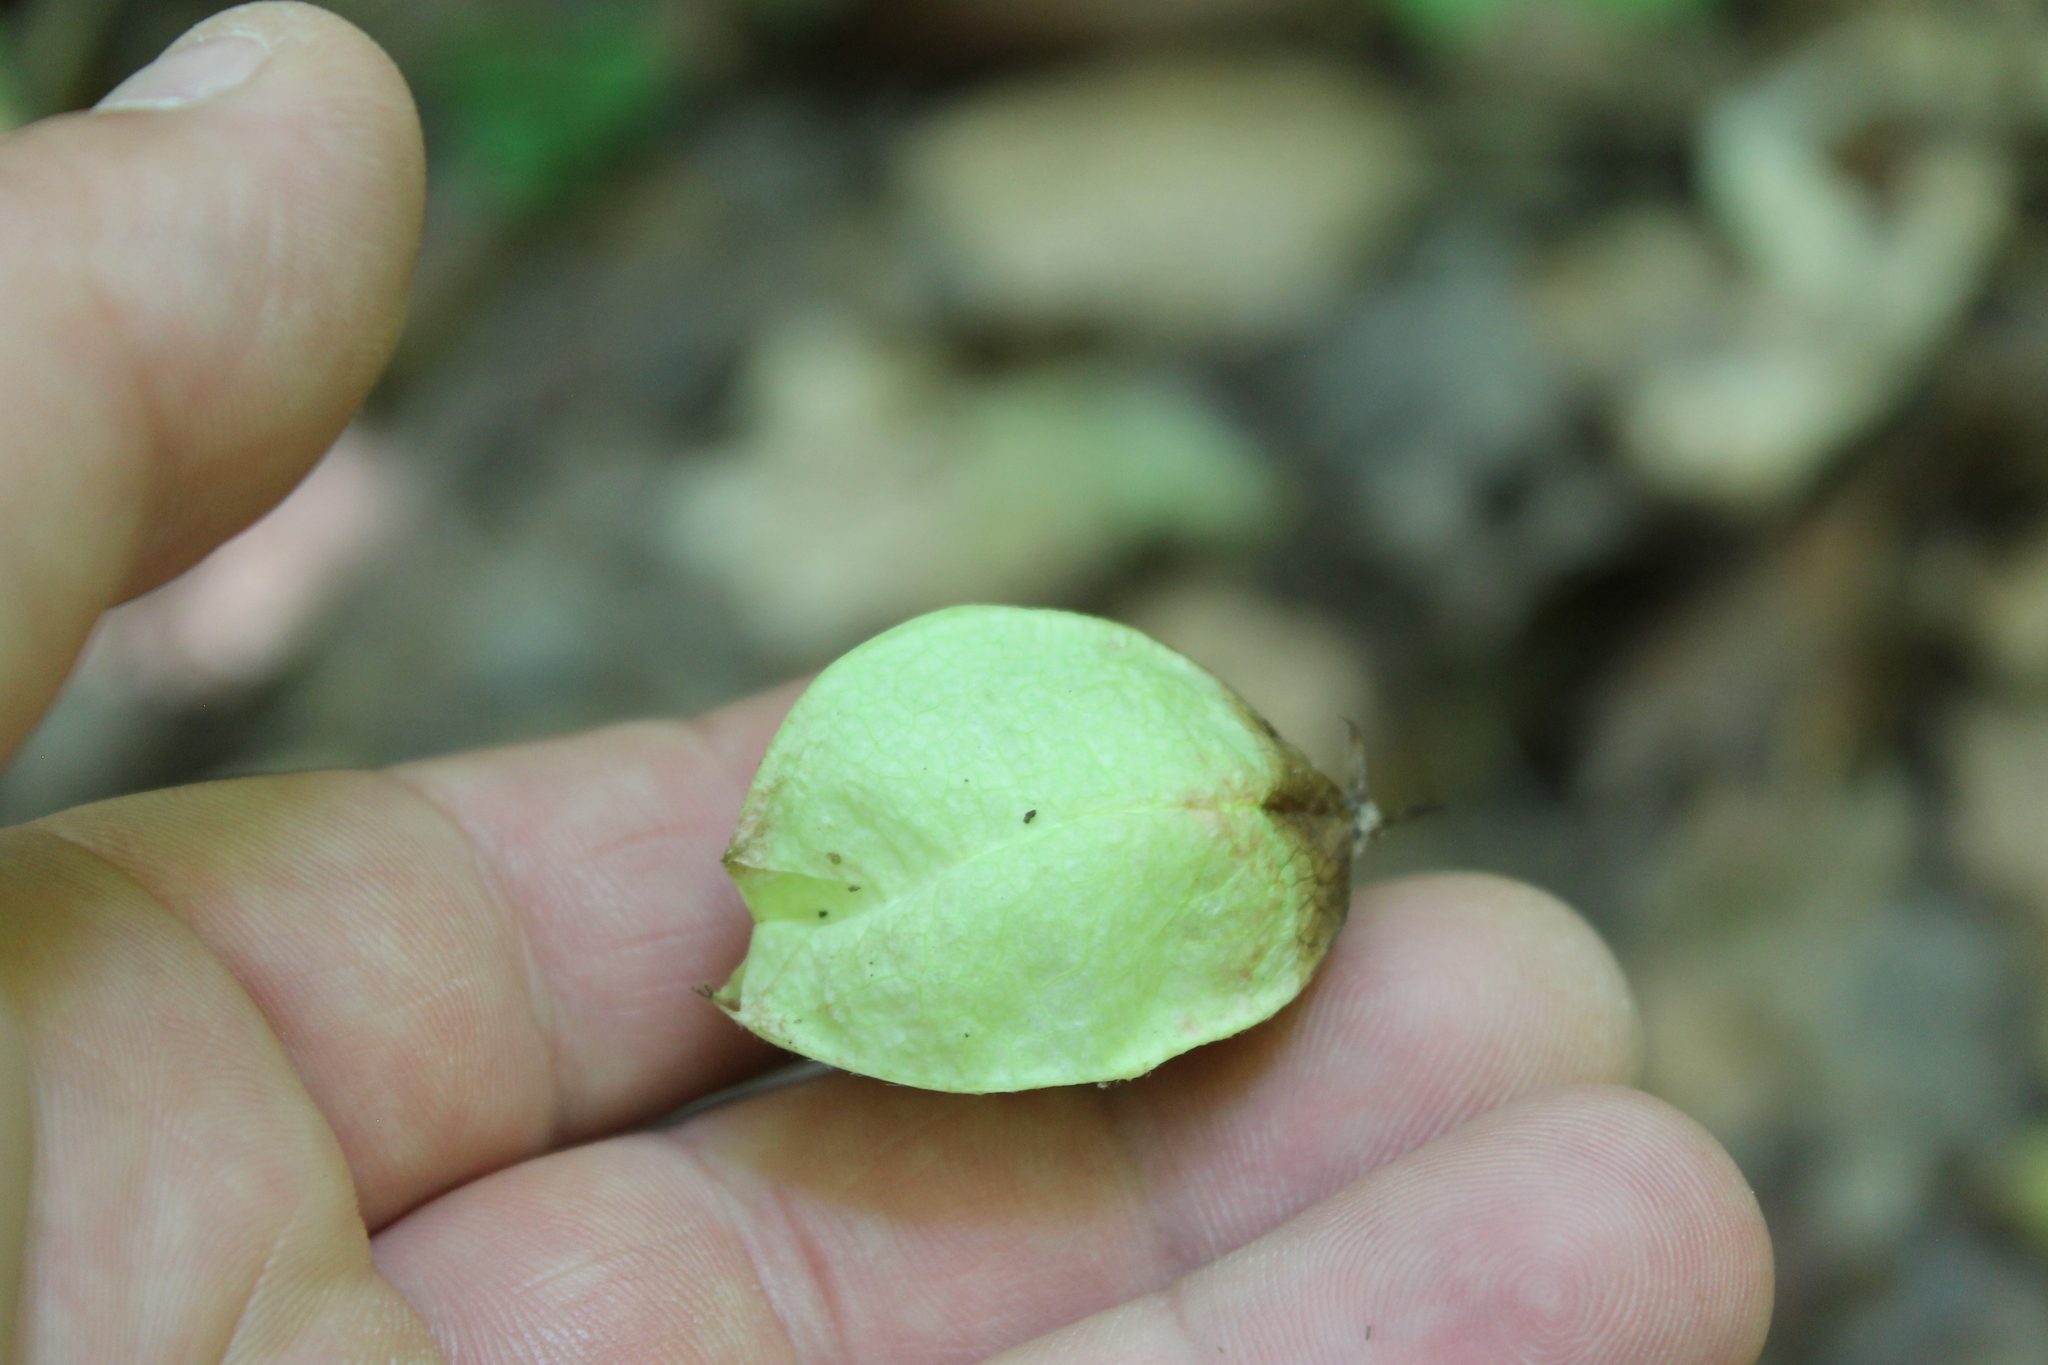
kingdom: Plantae
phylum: Tracheophyta
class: Magnoliopsida
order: Crossosomatales
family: Staphyleaceae
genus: Staphylea
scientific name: Staphylea trifolia
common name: American bladdernut
